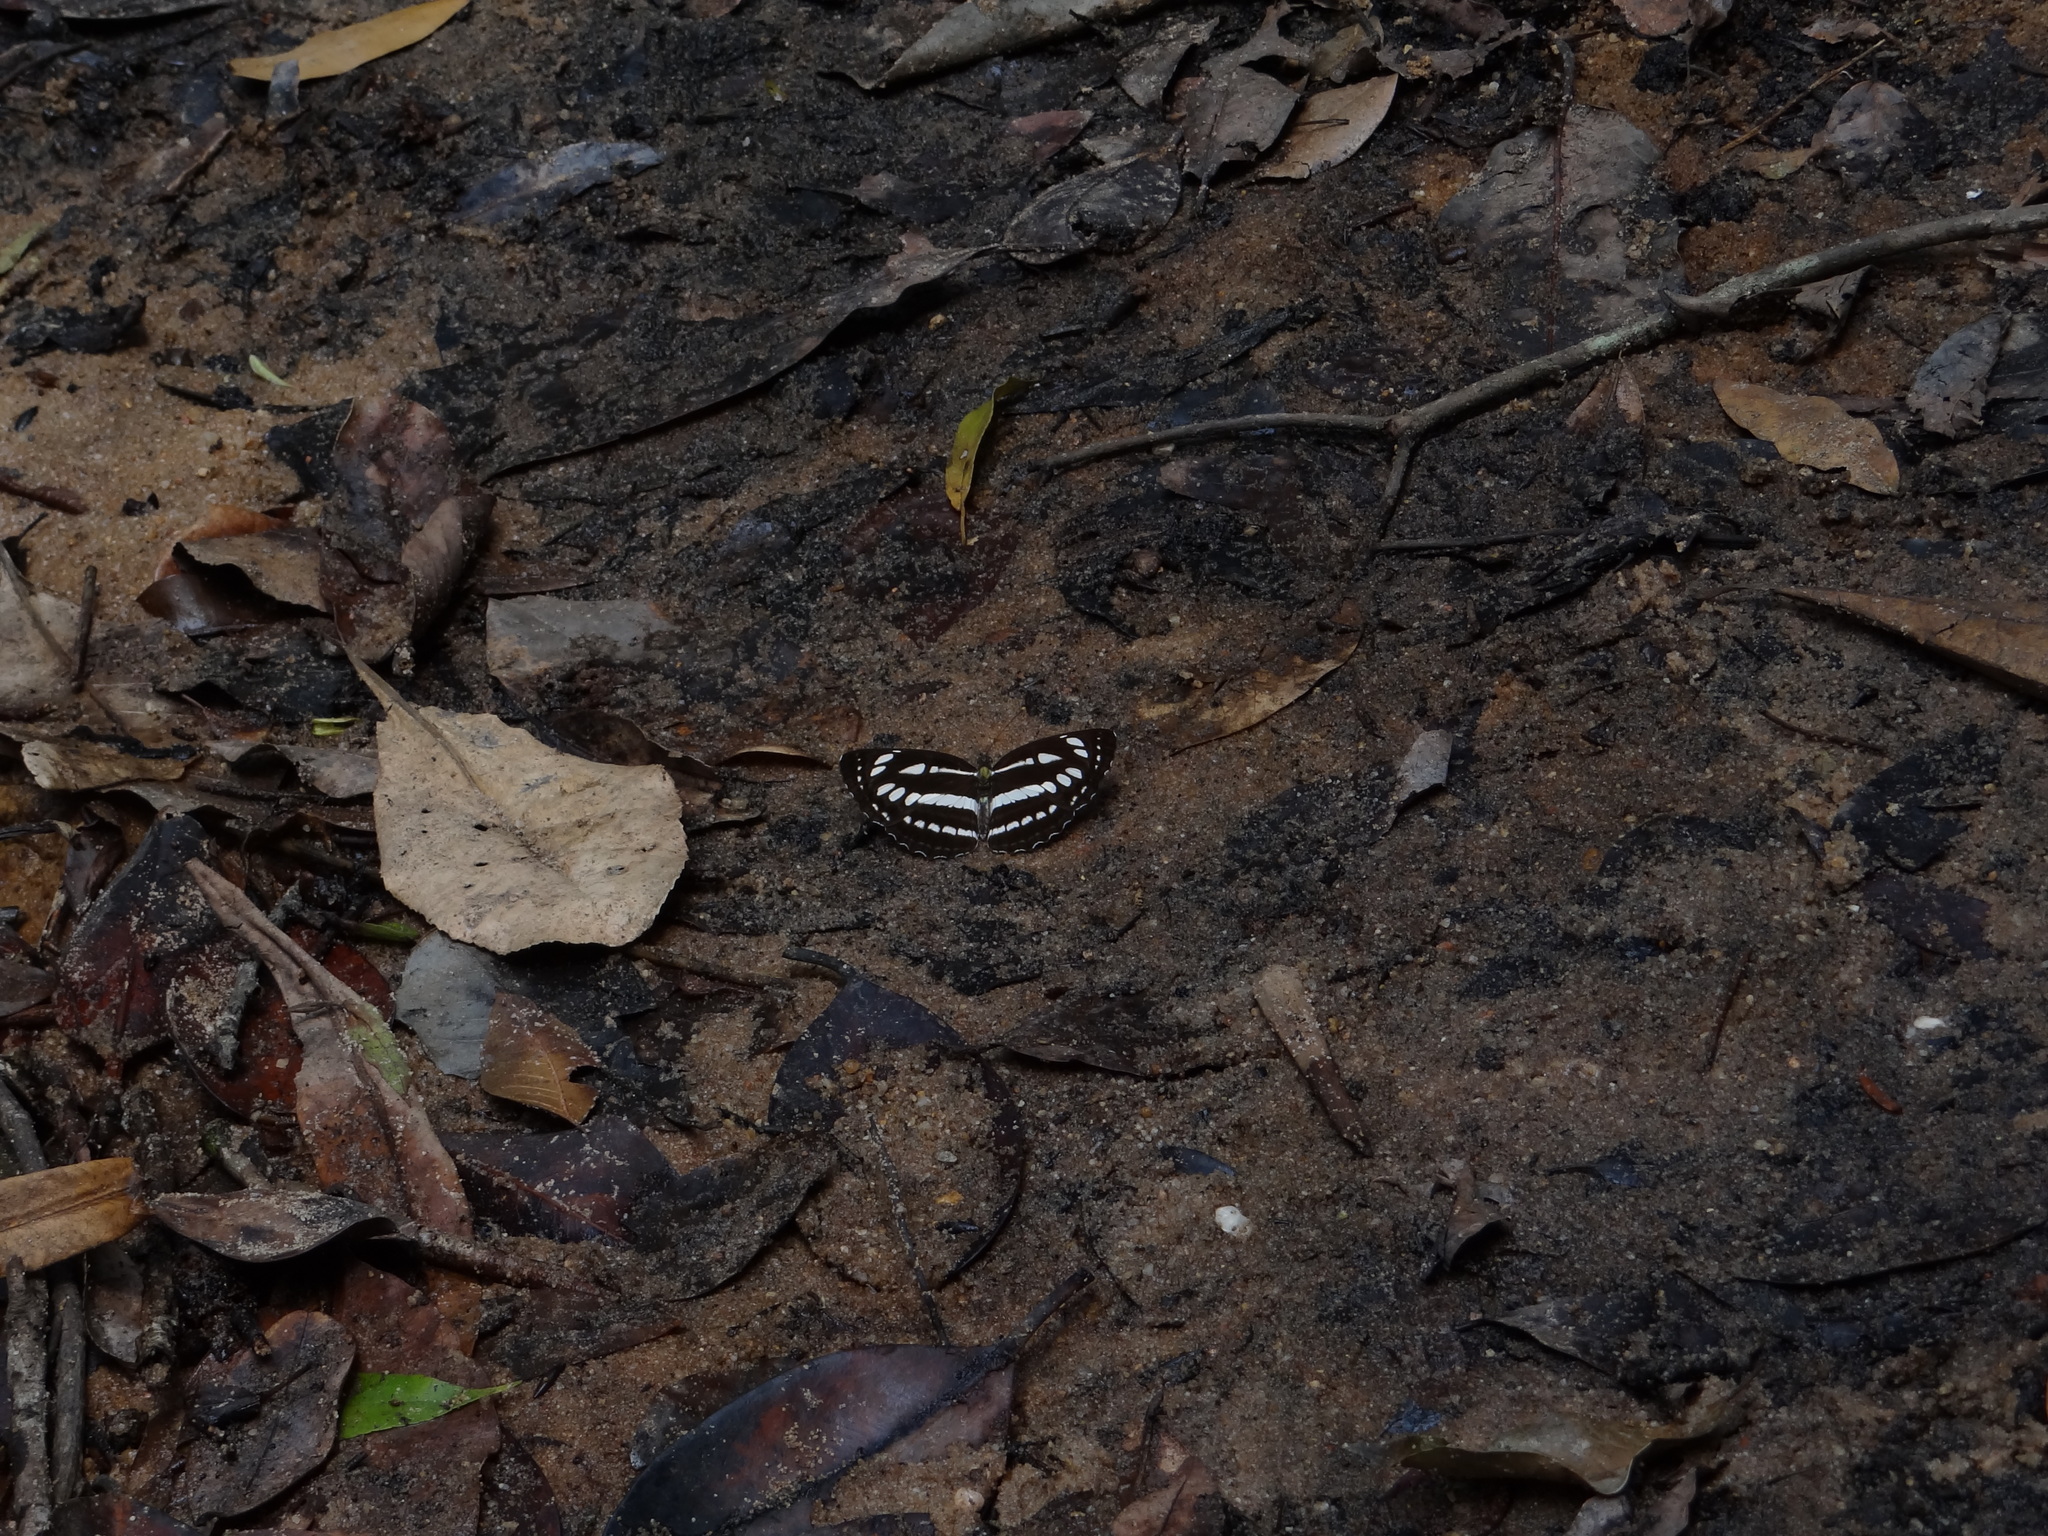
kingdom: Animalia
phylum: Arthropoda
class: Insecta
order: Lepidoptera
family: Nymphalidae
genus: Neptis
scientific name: Neptis hylas
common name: Common sailer
